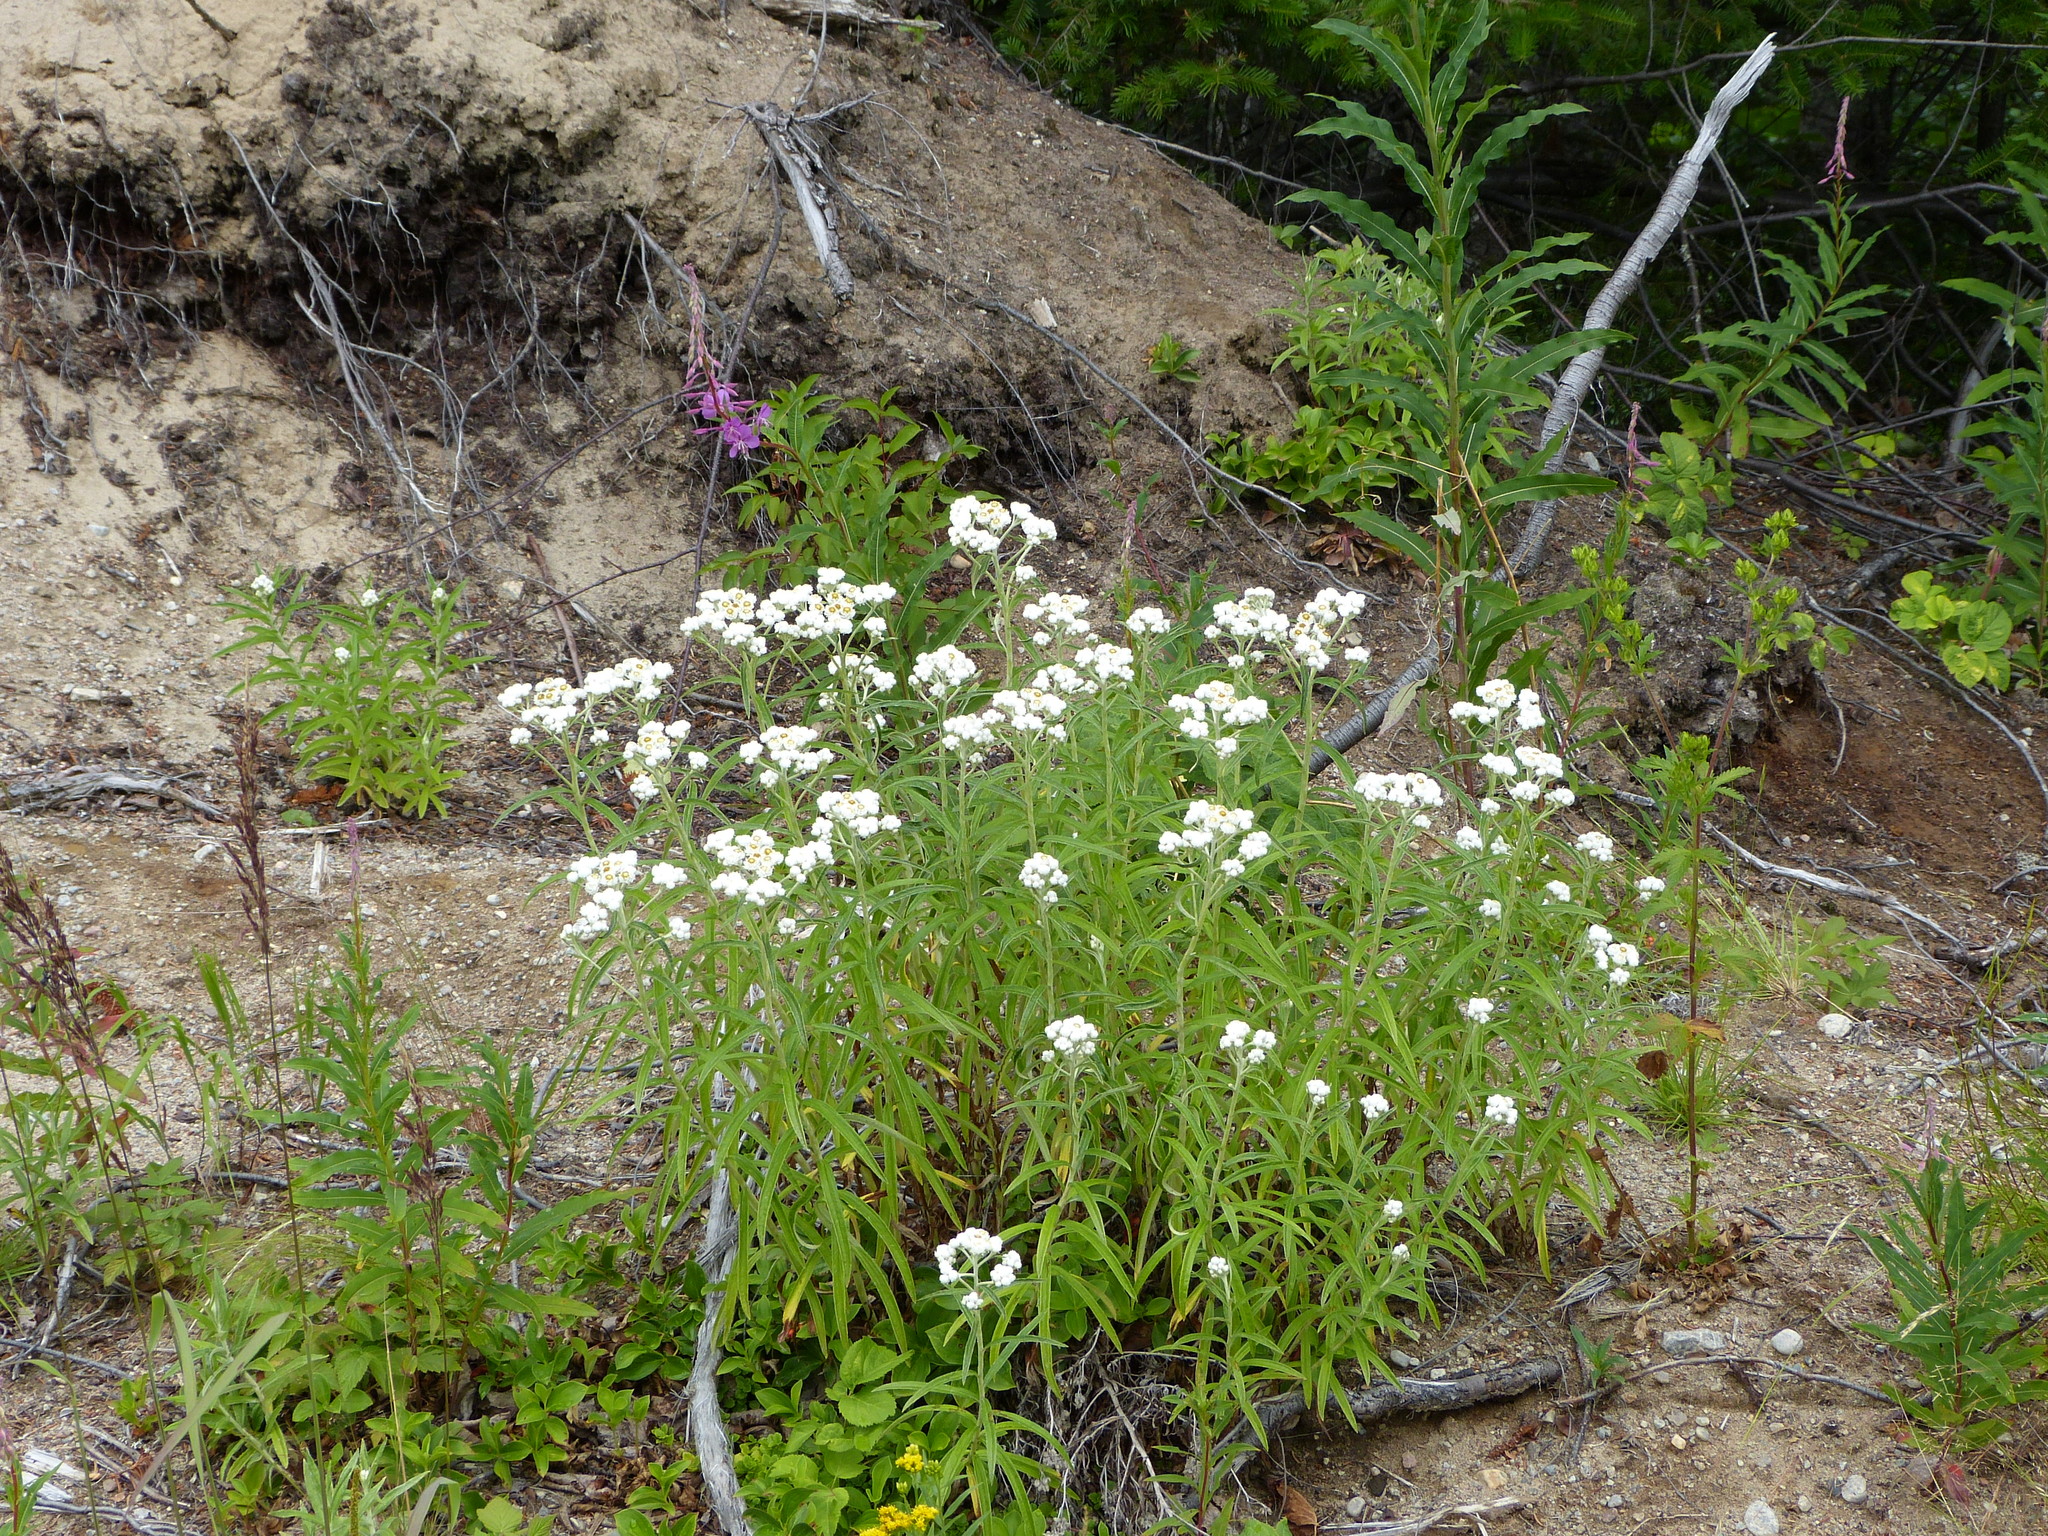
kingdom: Plantae
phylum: Tracheophyta
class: Magnoliopsida
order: Asterales
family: Asteraceae
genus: Anaphalis
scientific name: Anaphalis margaritacea
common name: Pearly everlasting
